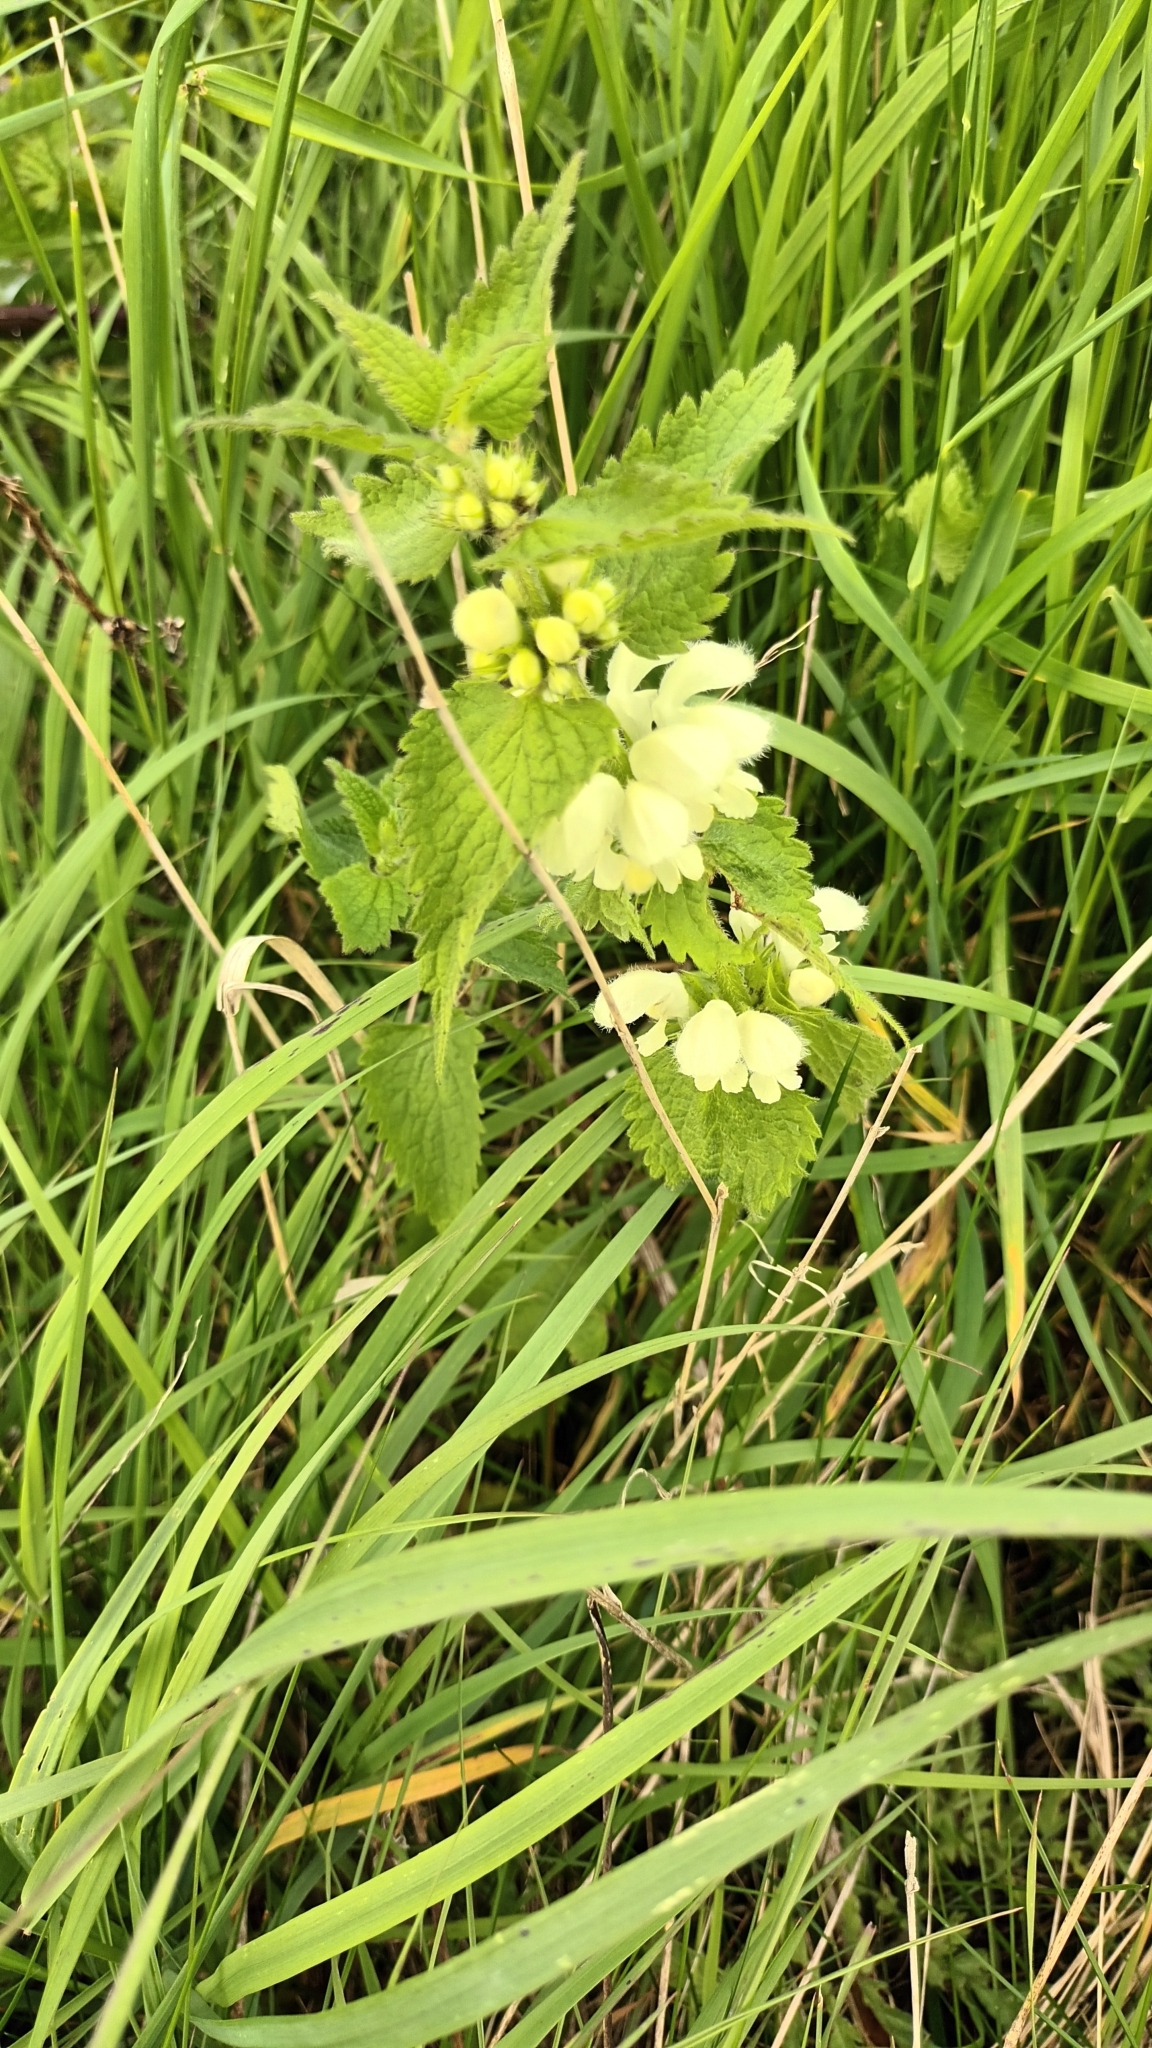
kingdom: Plantae
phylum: Tracheophyta
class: Magnoliopsida
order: Lamiales
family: Lamiaceae
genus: Lamium
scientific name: Lamium album
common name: White dead-nettle
